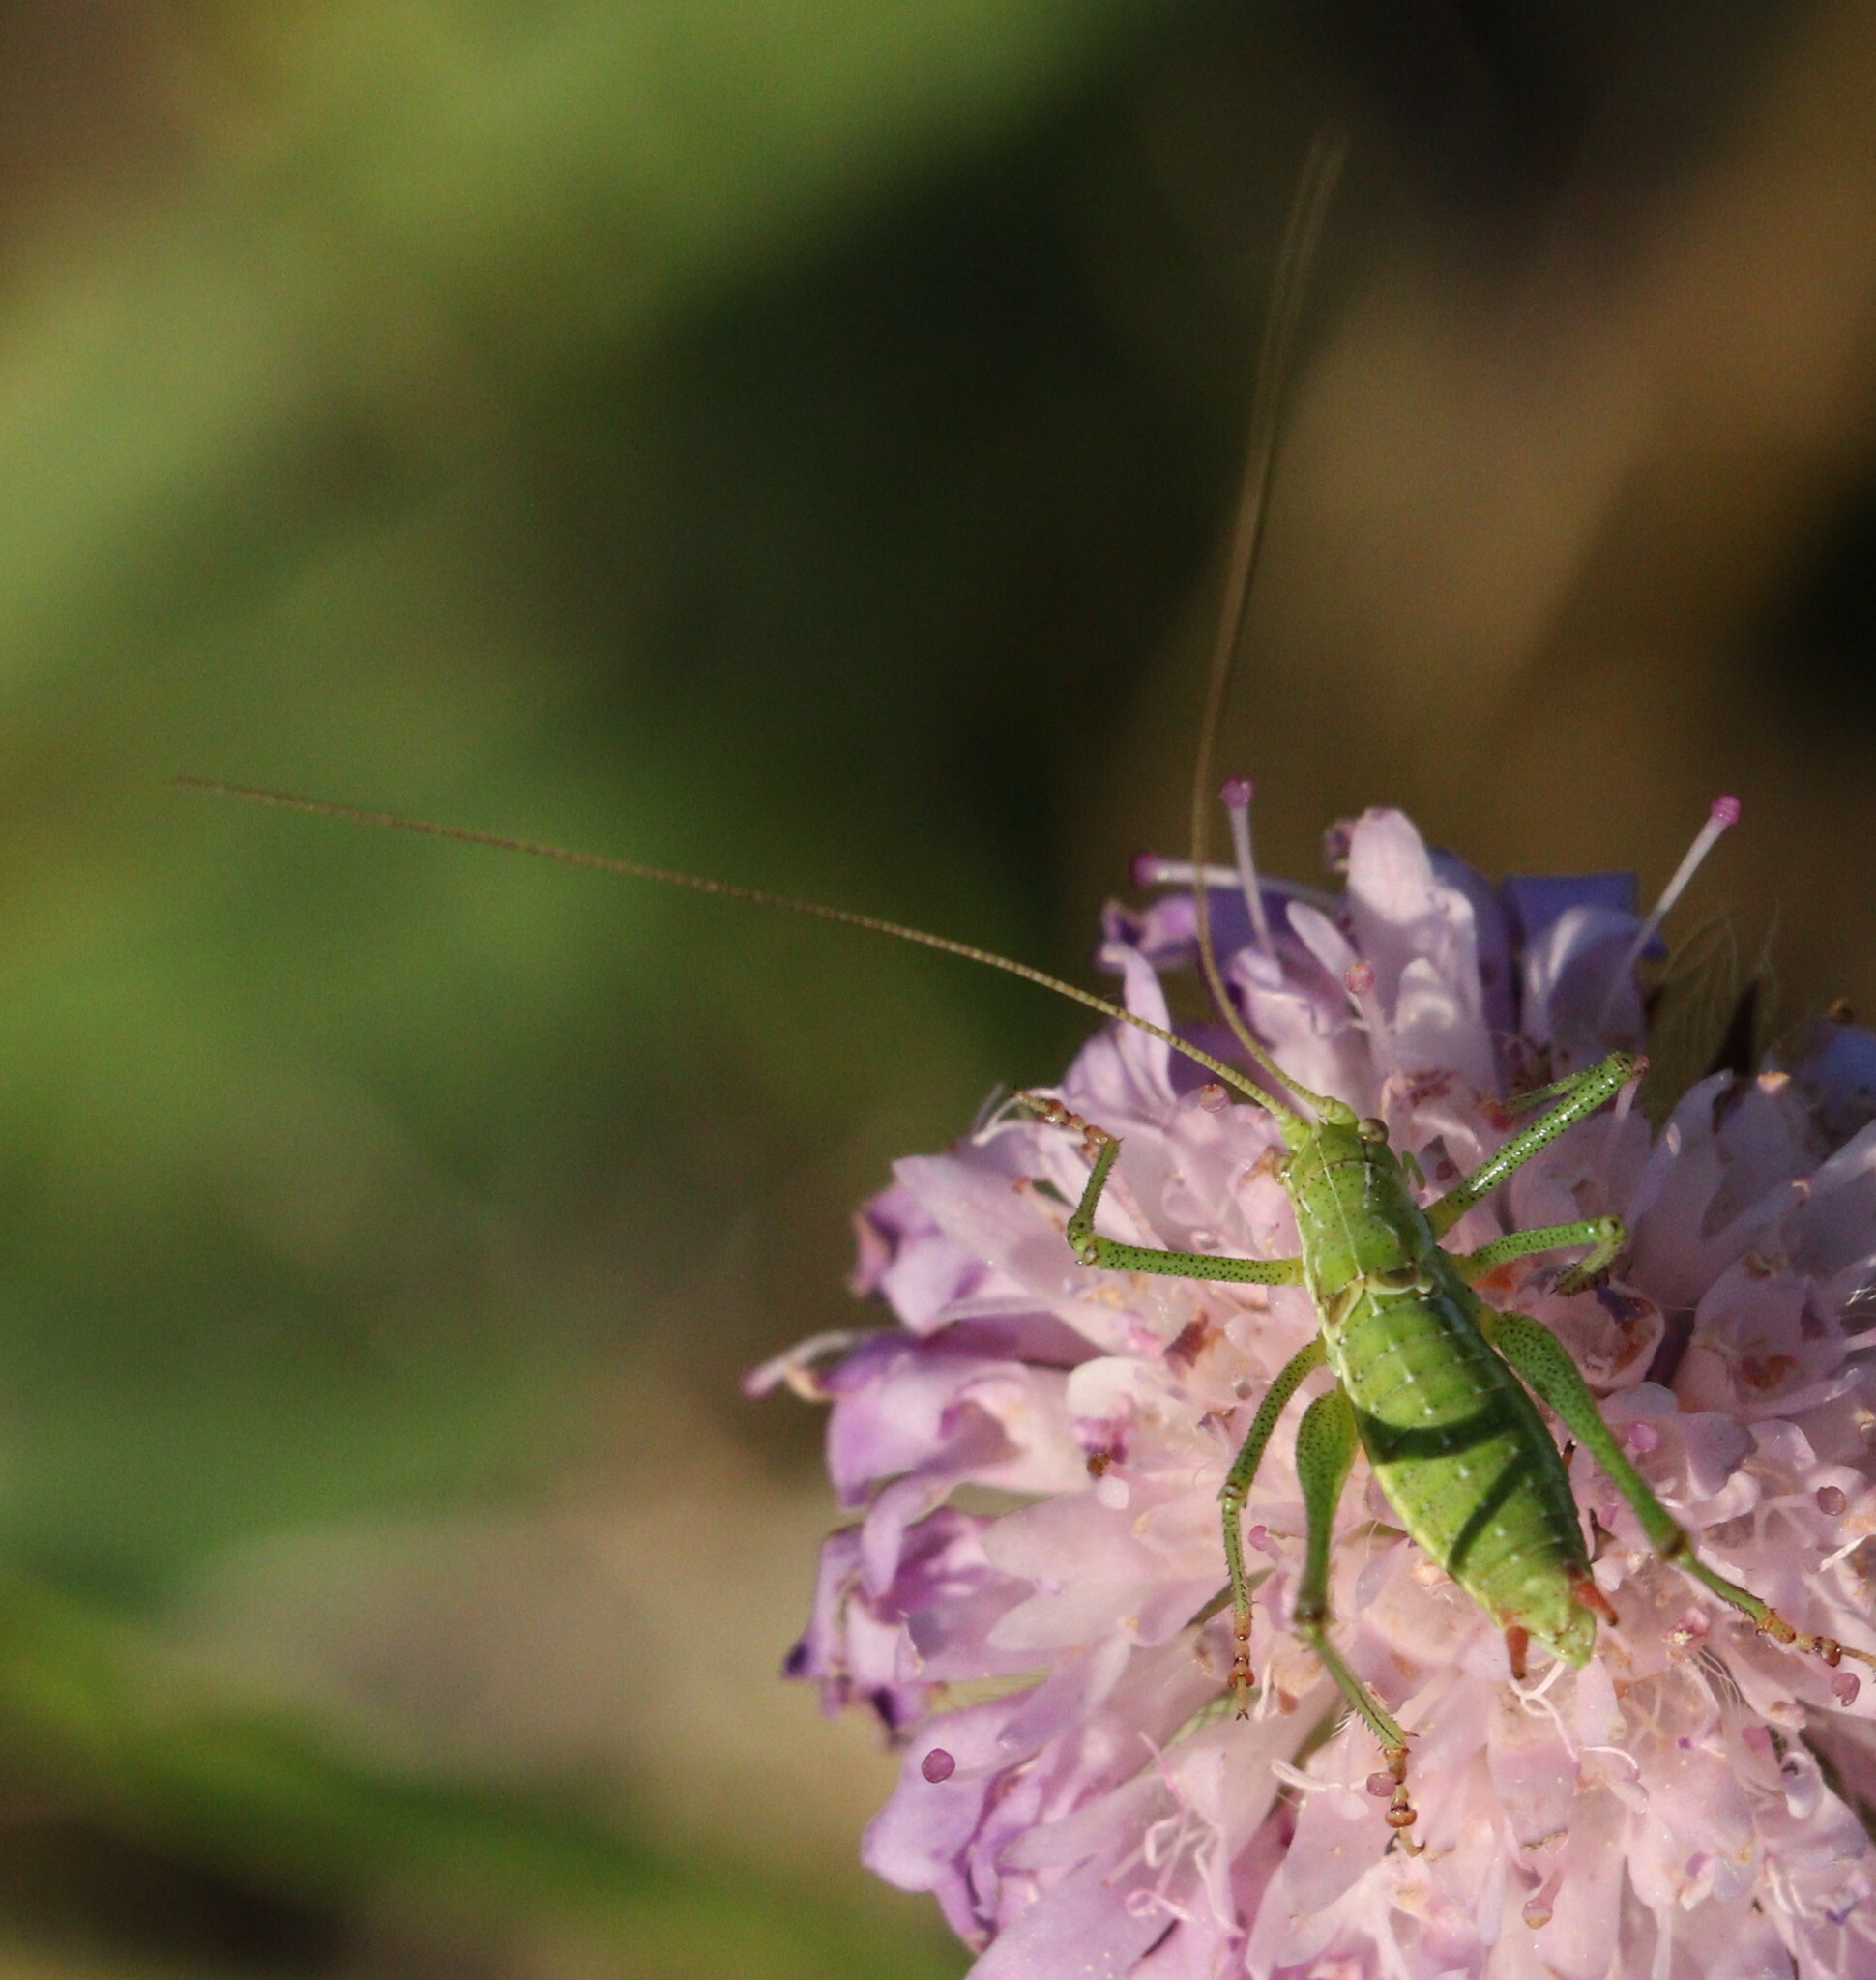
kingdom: Animalia
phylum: Arthropoda
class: Insecta
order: Orthoptera
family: Tettigoniidae
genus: Leptophyes
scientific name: Leptophyes albovittata
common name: Striped bush-cricket
